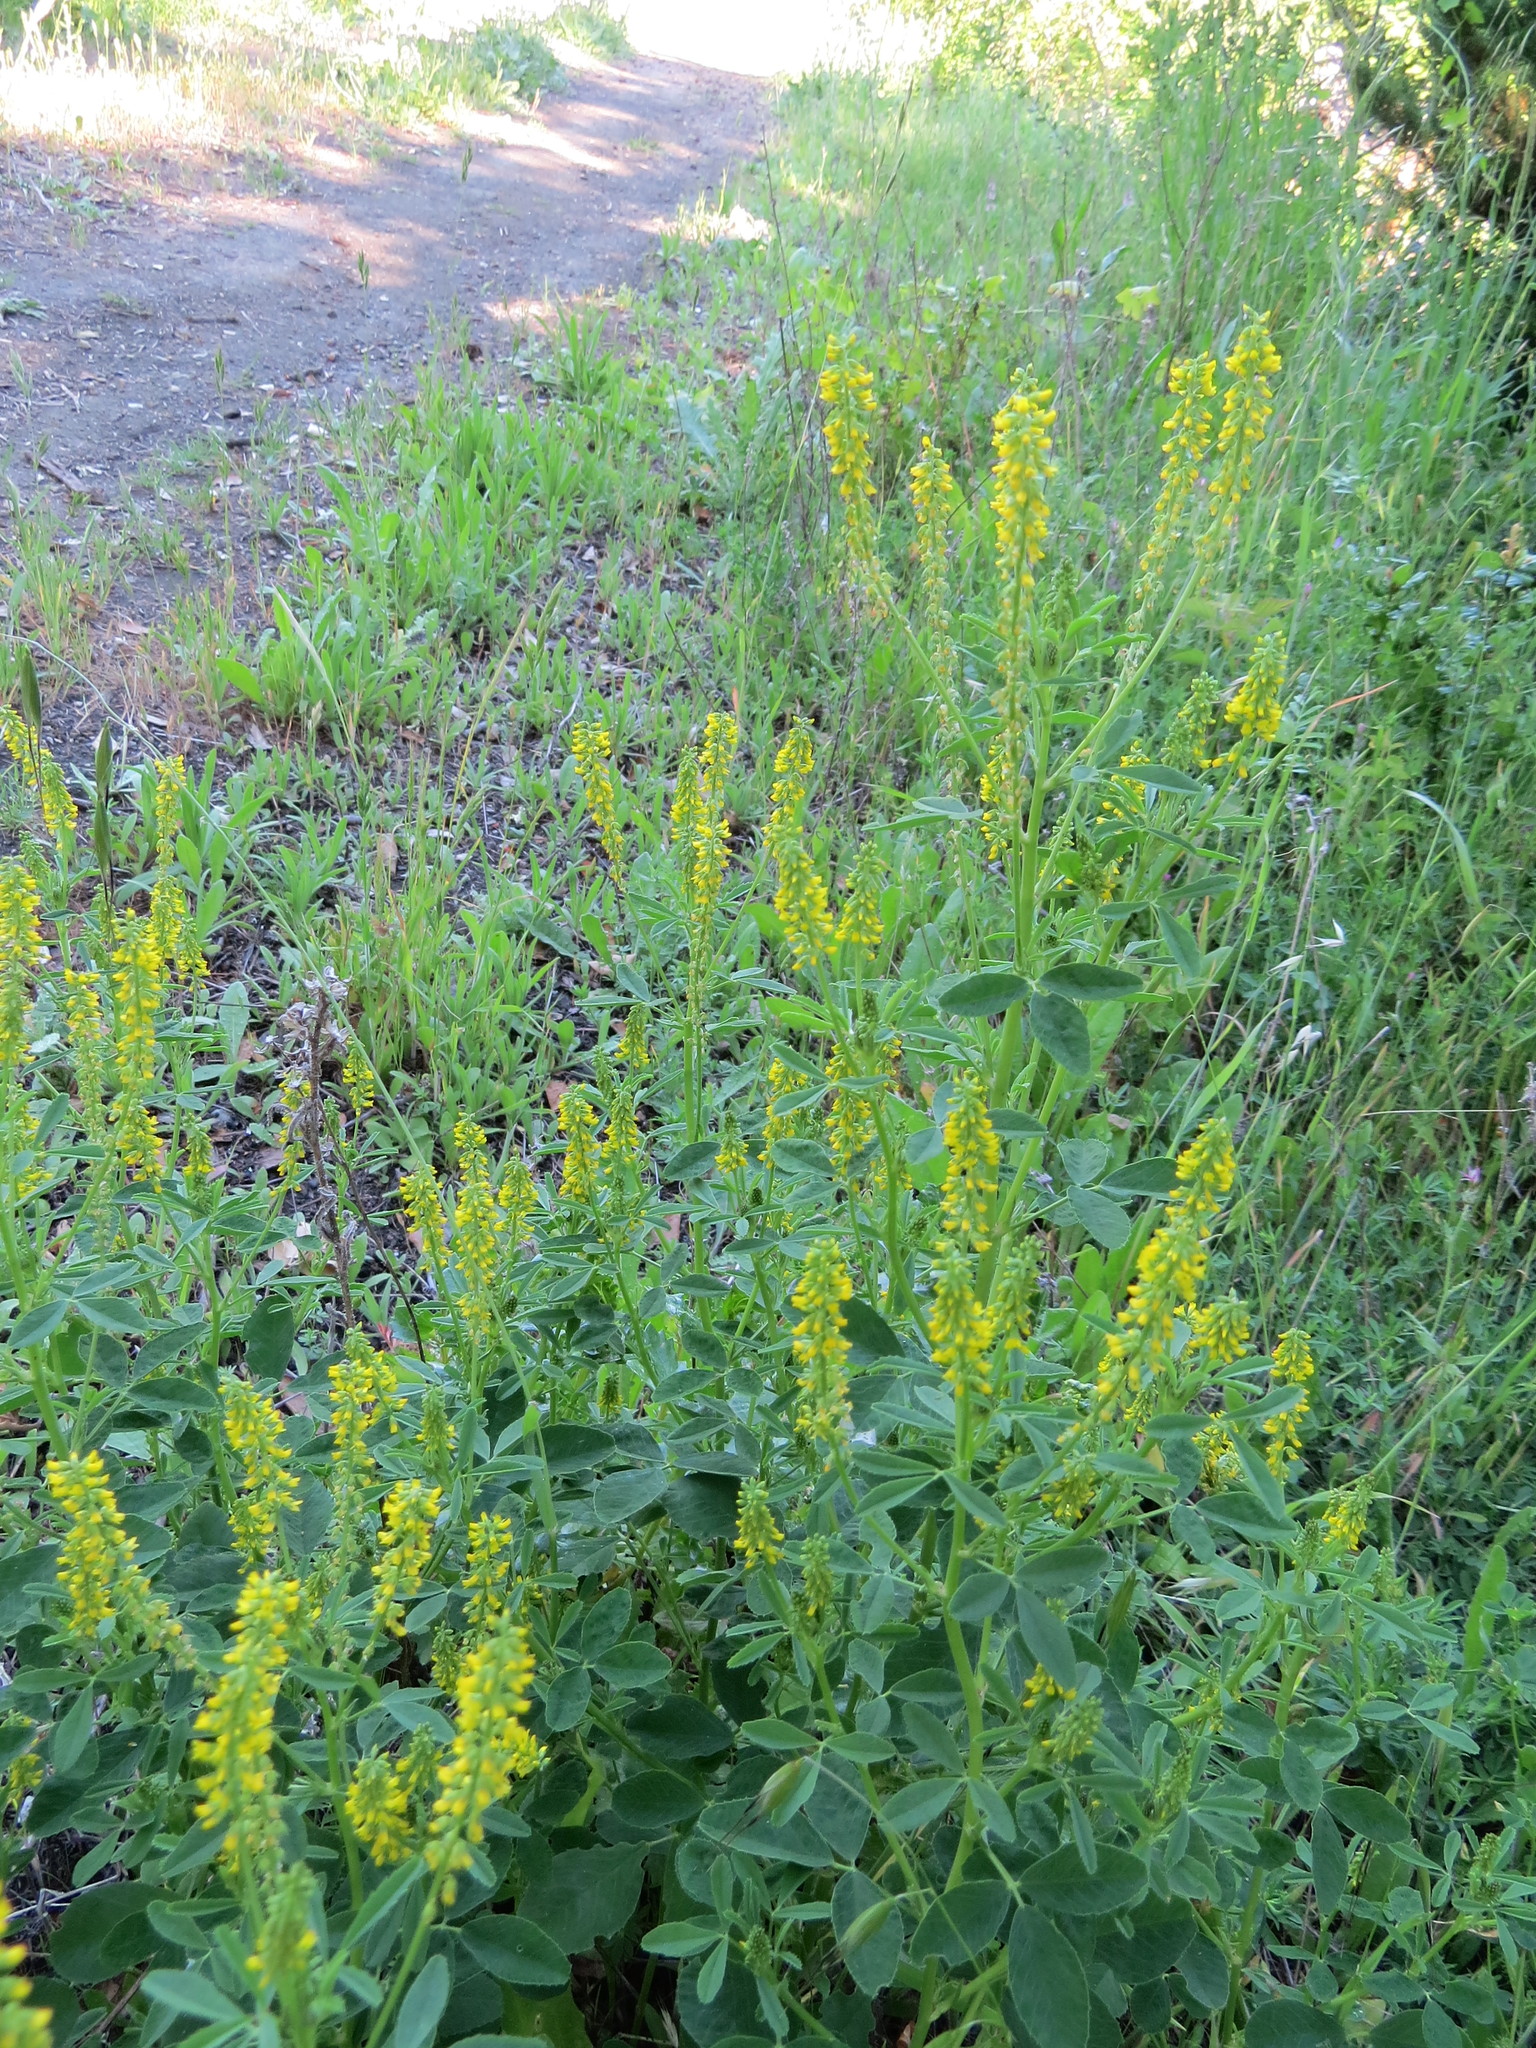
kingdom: Plantae
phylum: Tracheophyta
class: Magnoliopsida
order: Fabales
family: Fabaceae
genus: Melilotus
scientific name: Melilotus indicus
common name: Small melilot
